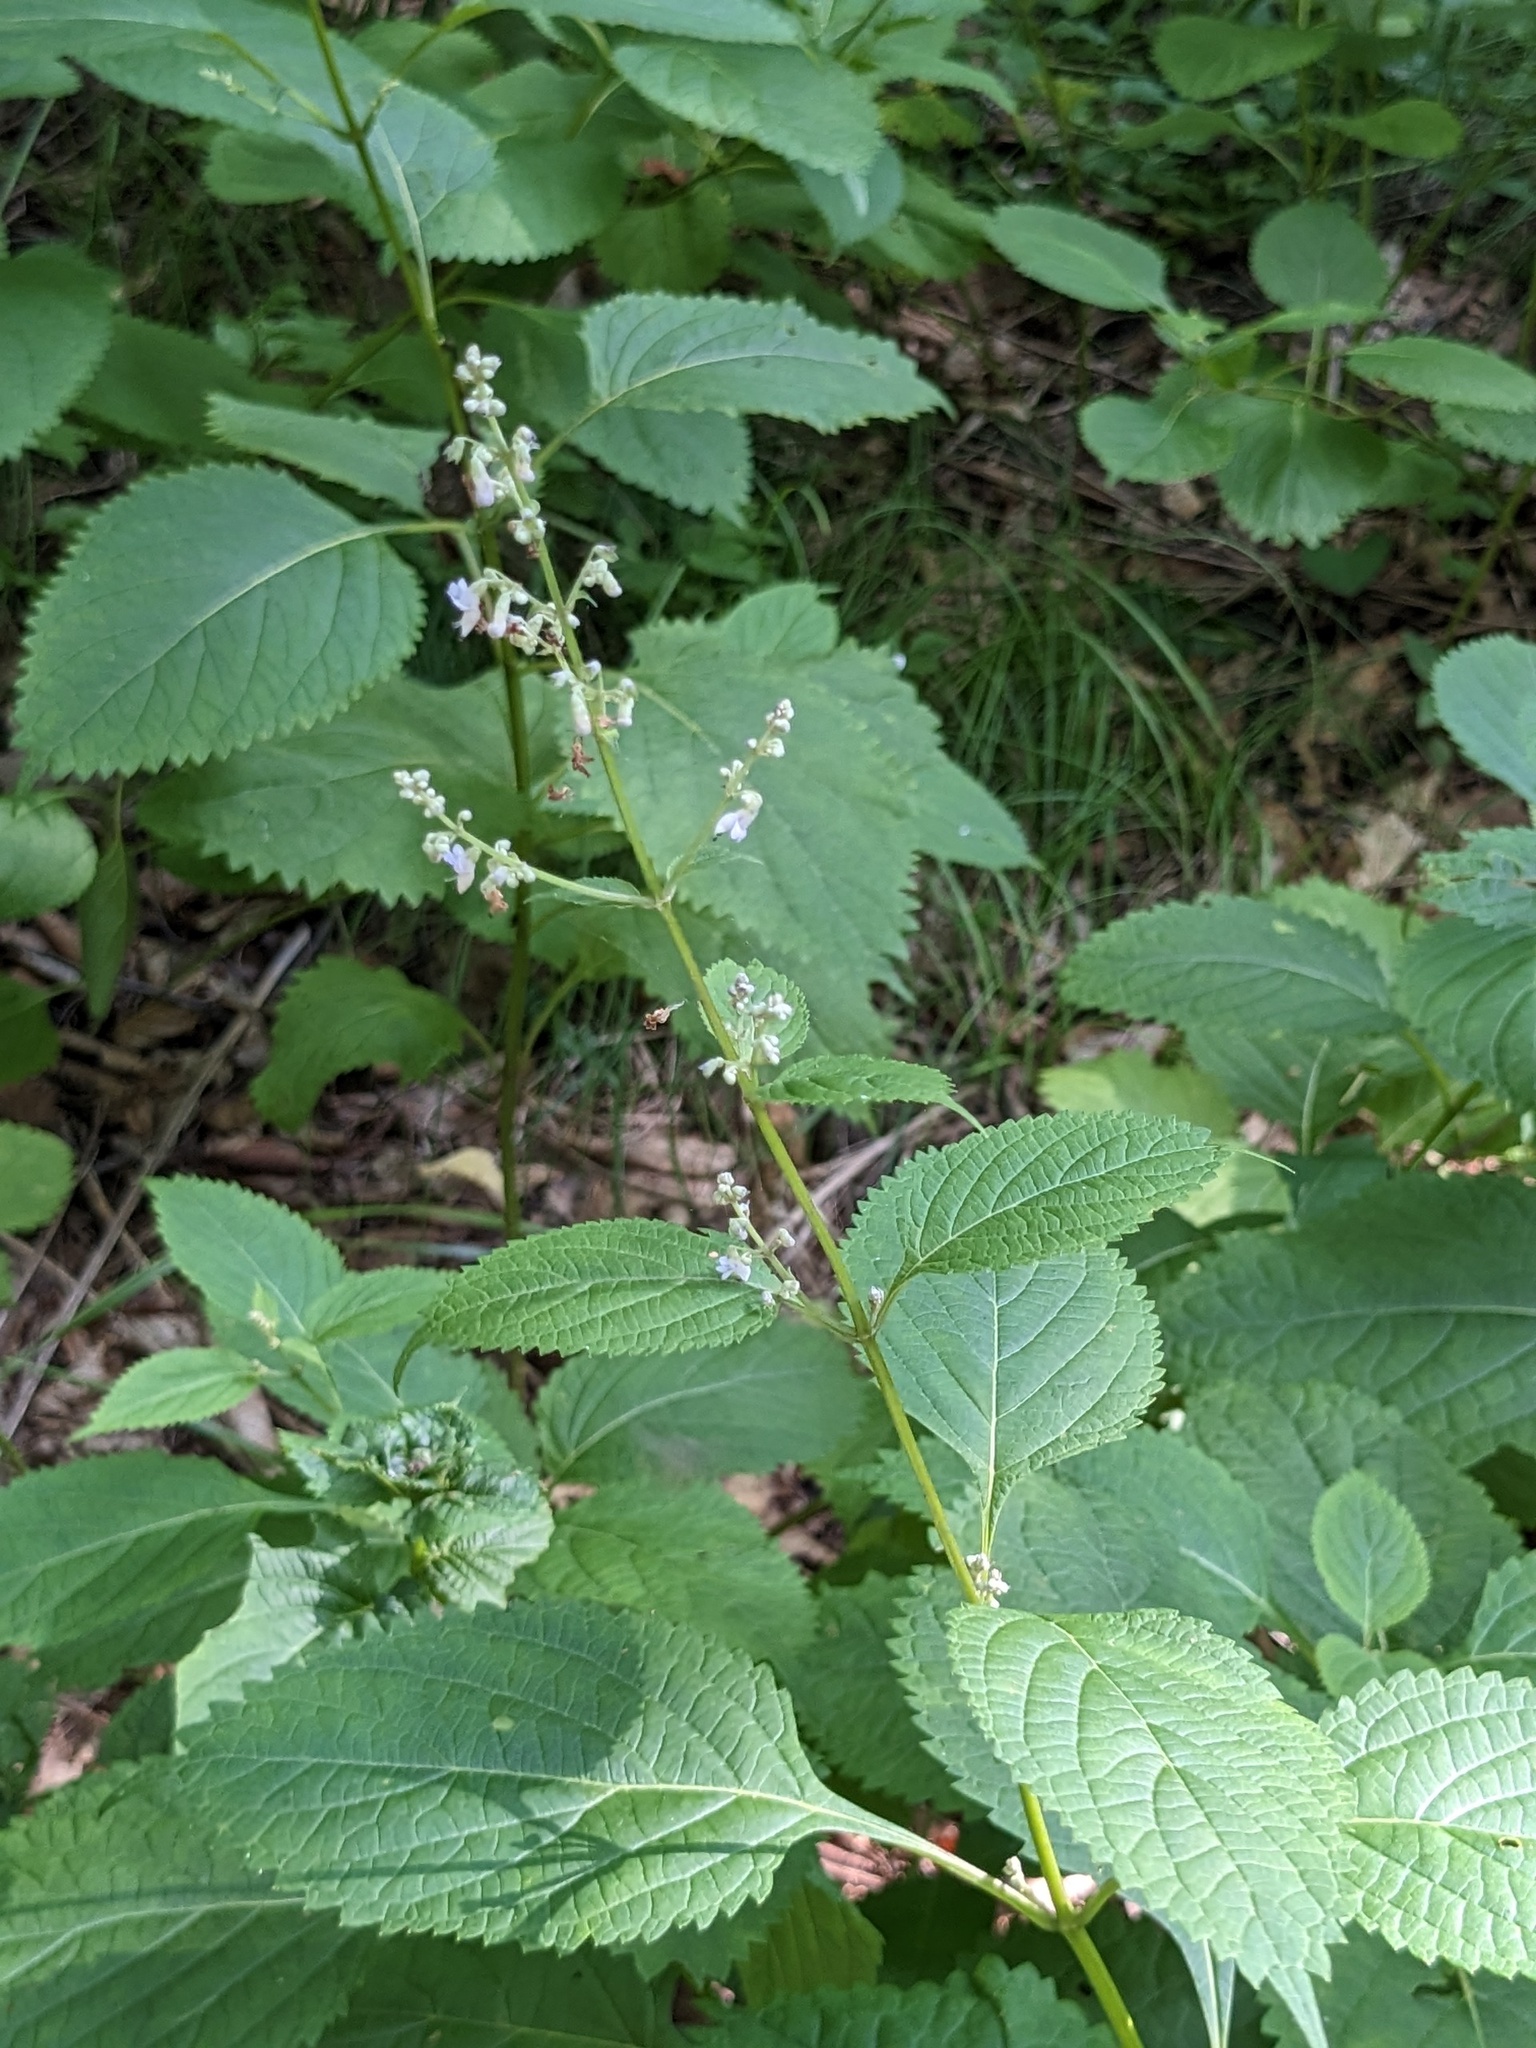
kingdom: Plantae
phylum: Tracheophyta
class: Magnoliopsida
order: Lamiales
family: Lamiaceae
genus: Isodon
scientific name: Isodon japonicus
